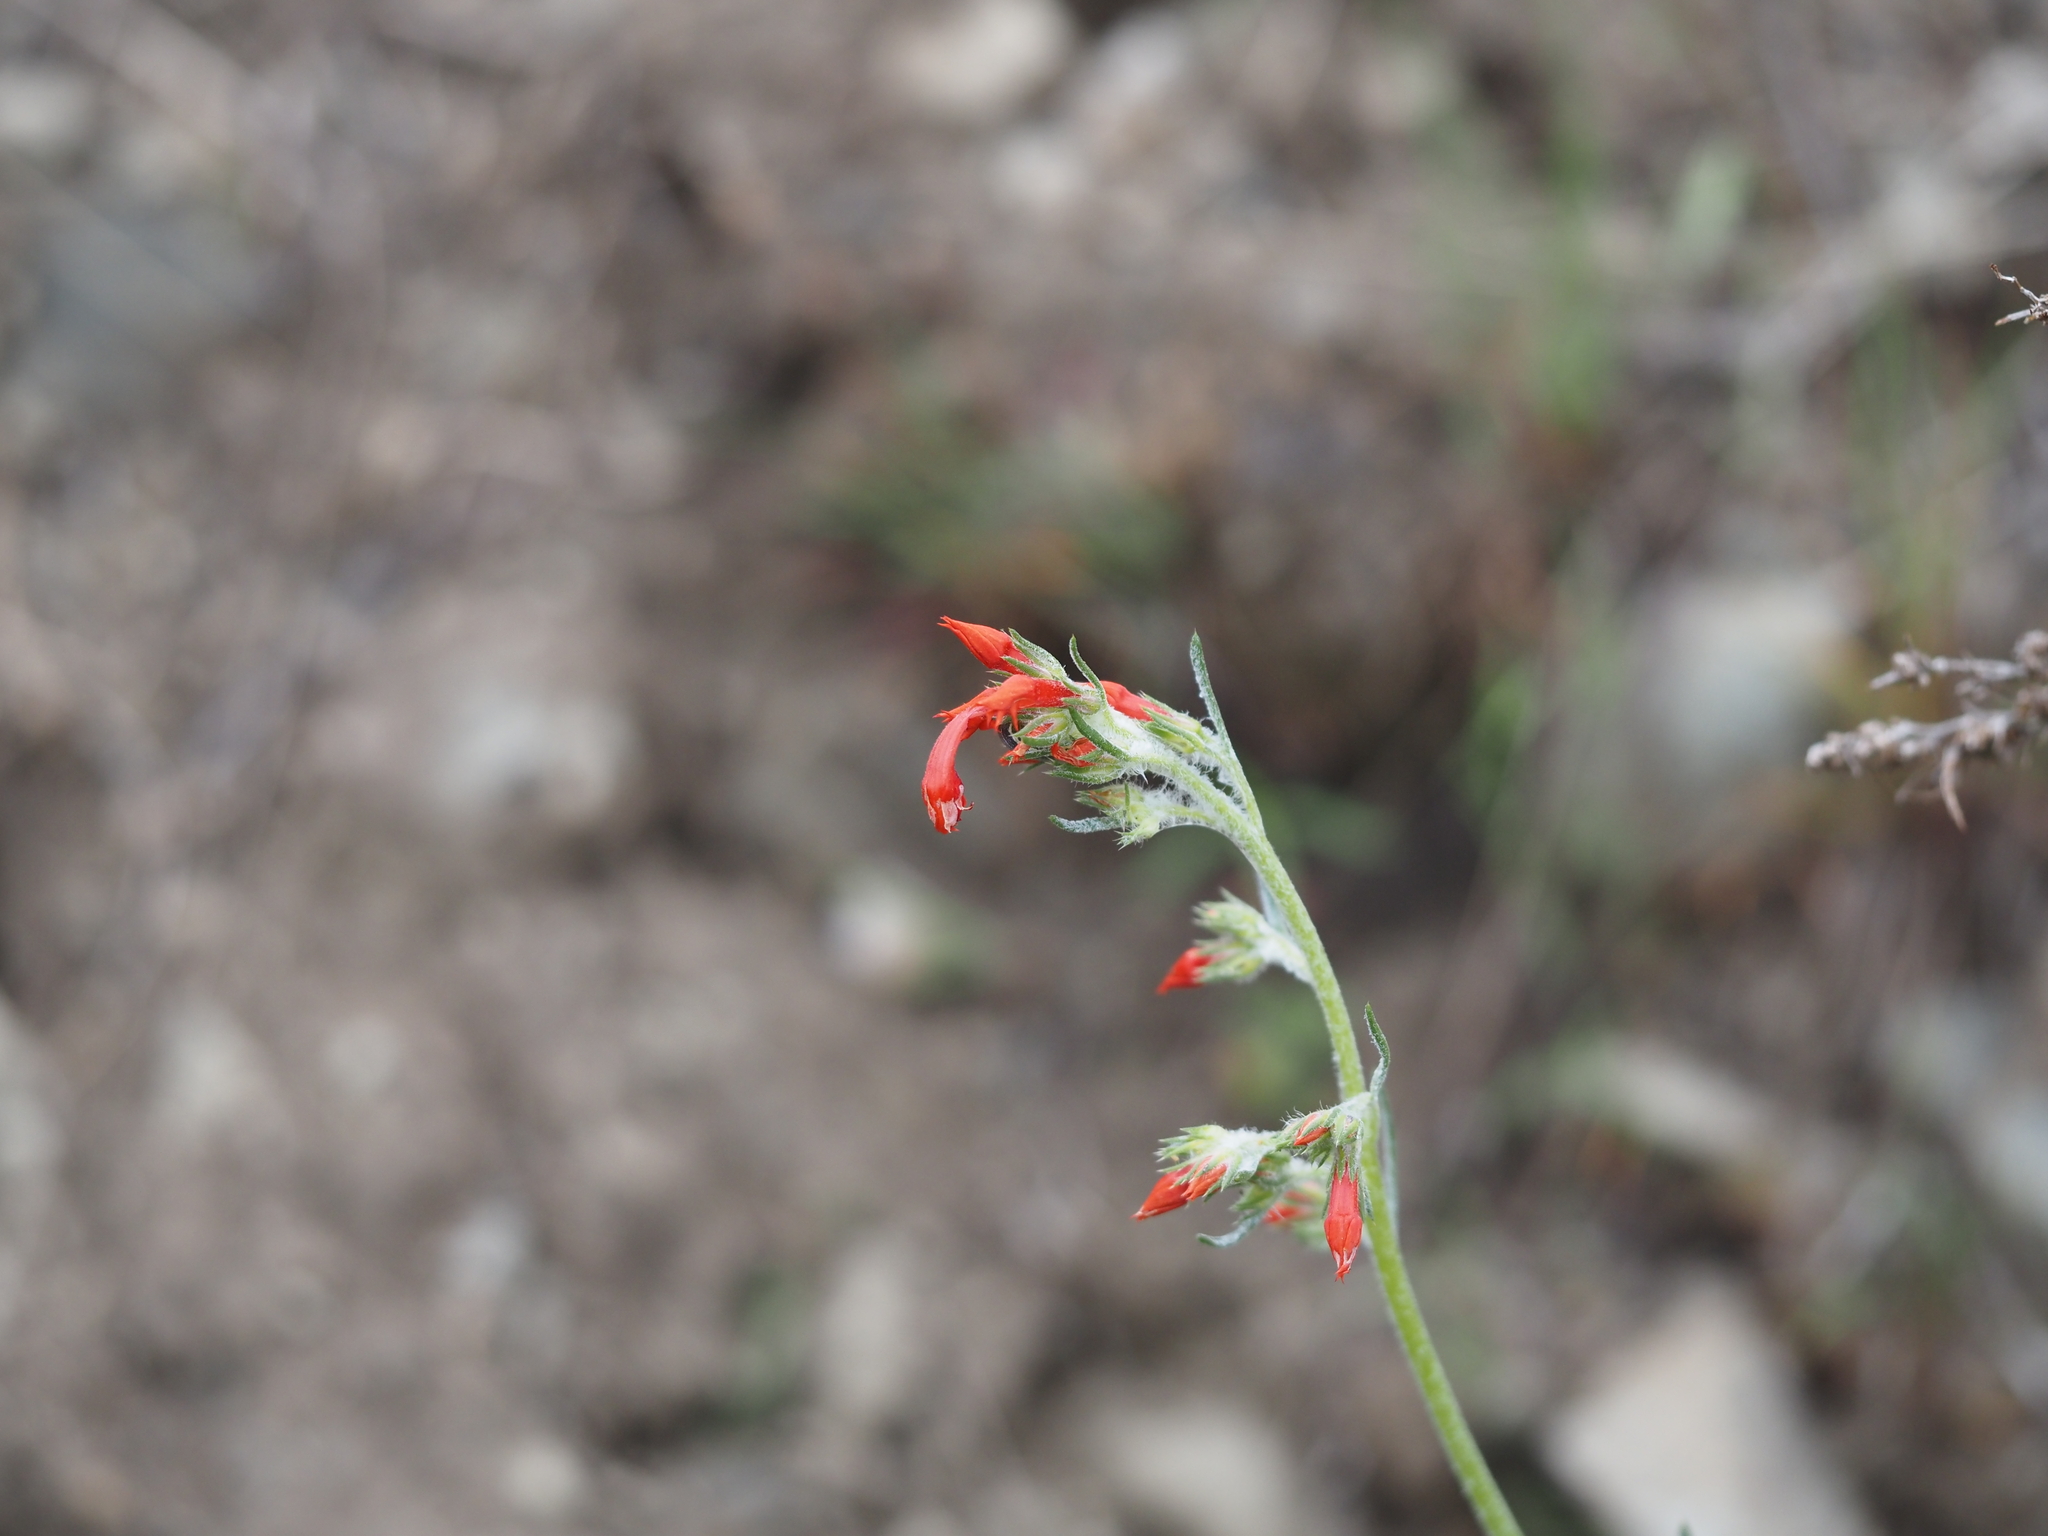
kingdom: Plantae
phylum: Tracheophyta
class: Magnoliopsida
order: Ericales
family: Polemoniaceae
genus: Ipomopsis
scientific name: Ipomopsis aggregata
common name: Scarlet gilia
